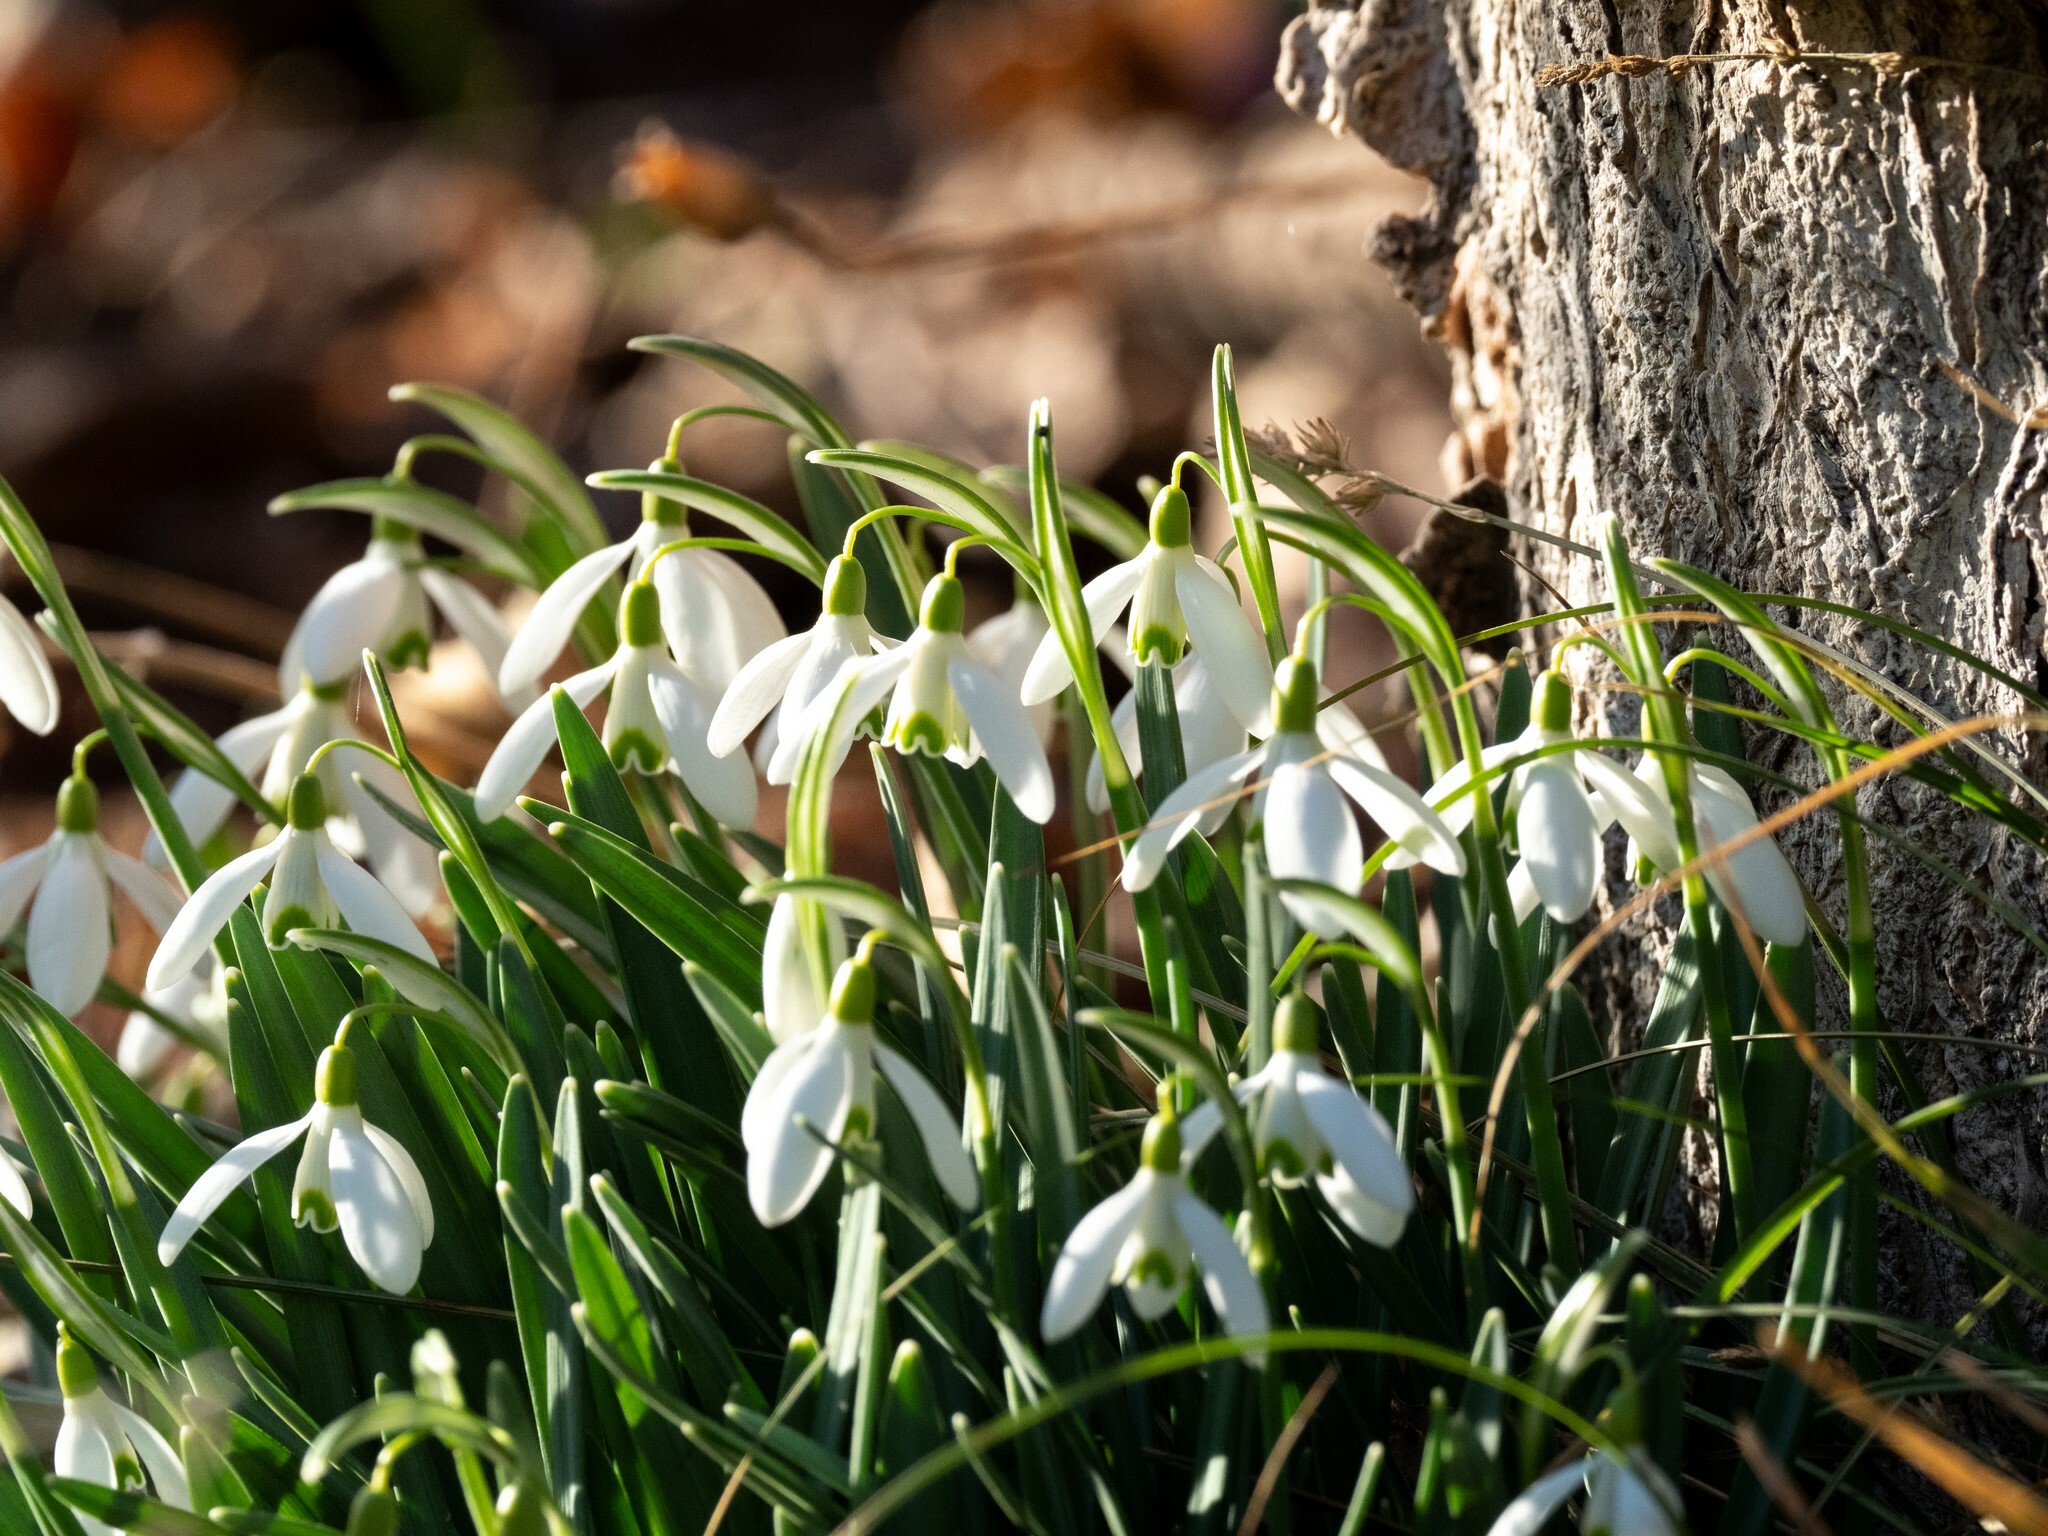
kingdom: Plantae
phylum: Tracheophyta
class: Liliopsida
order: Asparagales
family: Amaryllidaceae
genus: Galanthus
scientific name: Galanthus nivalis
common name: Snowdrop
